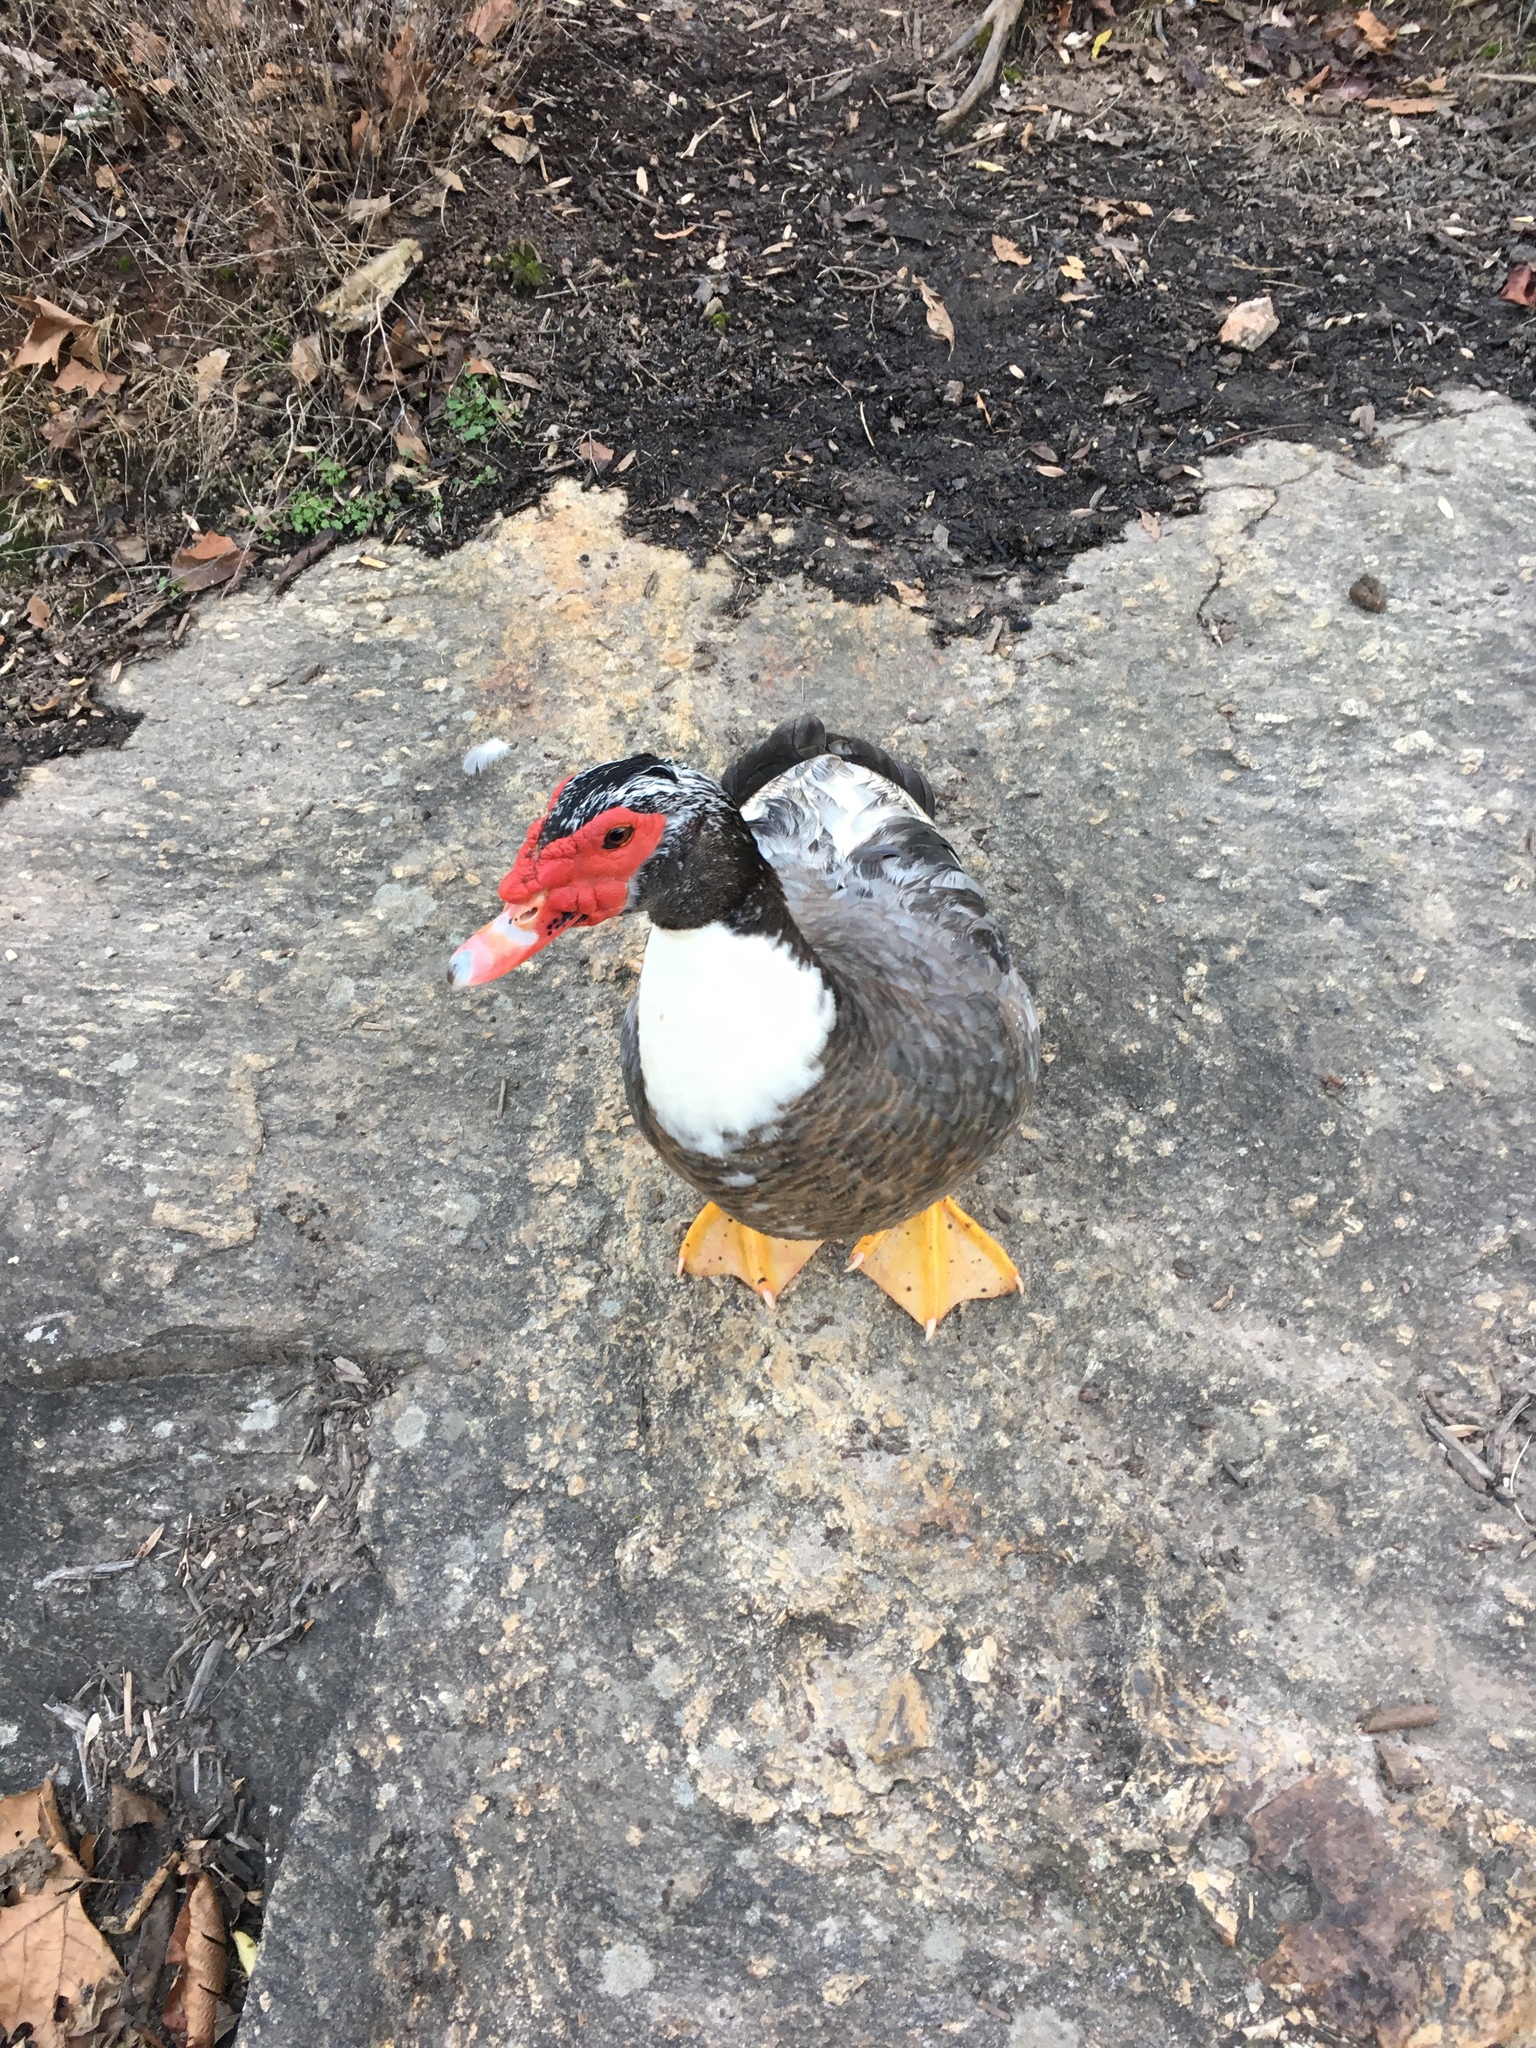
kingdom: Animalia
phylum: Chordata
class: Aves
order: Anseriformes
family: Anatidae
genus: Cairina
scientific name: Cairina moschata
